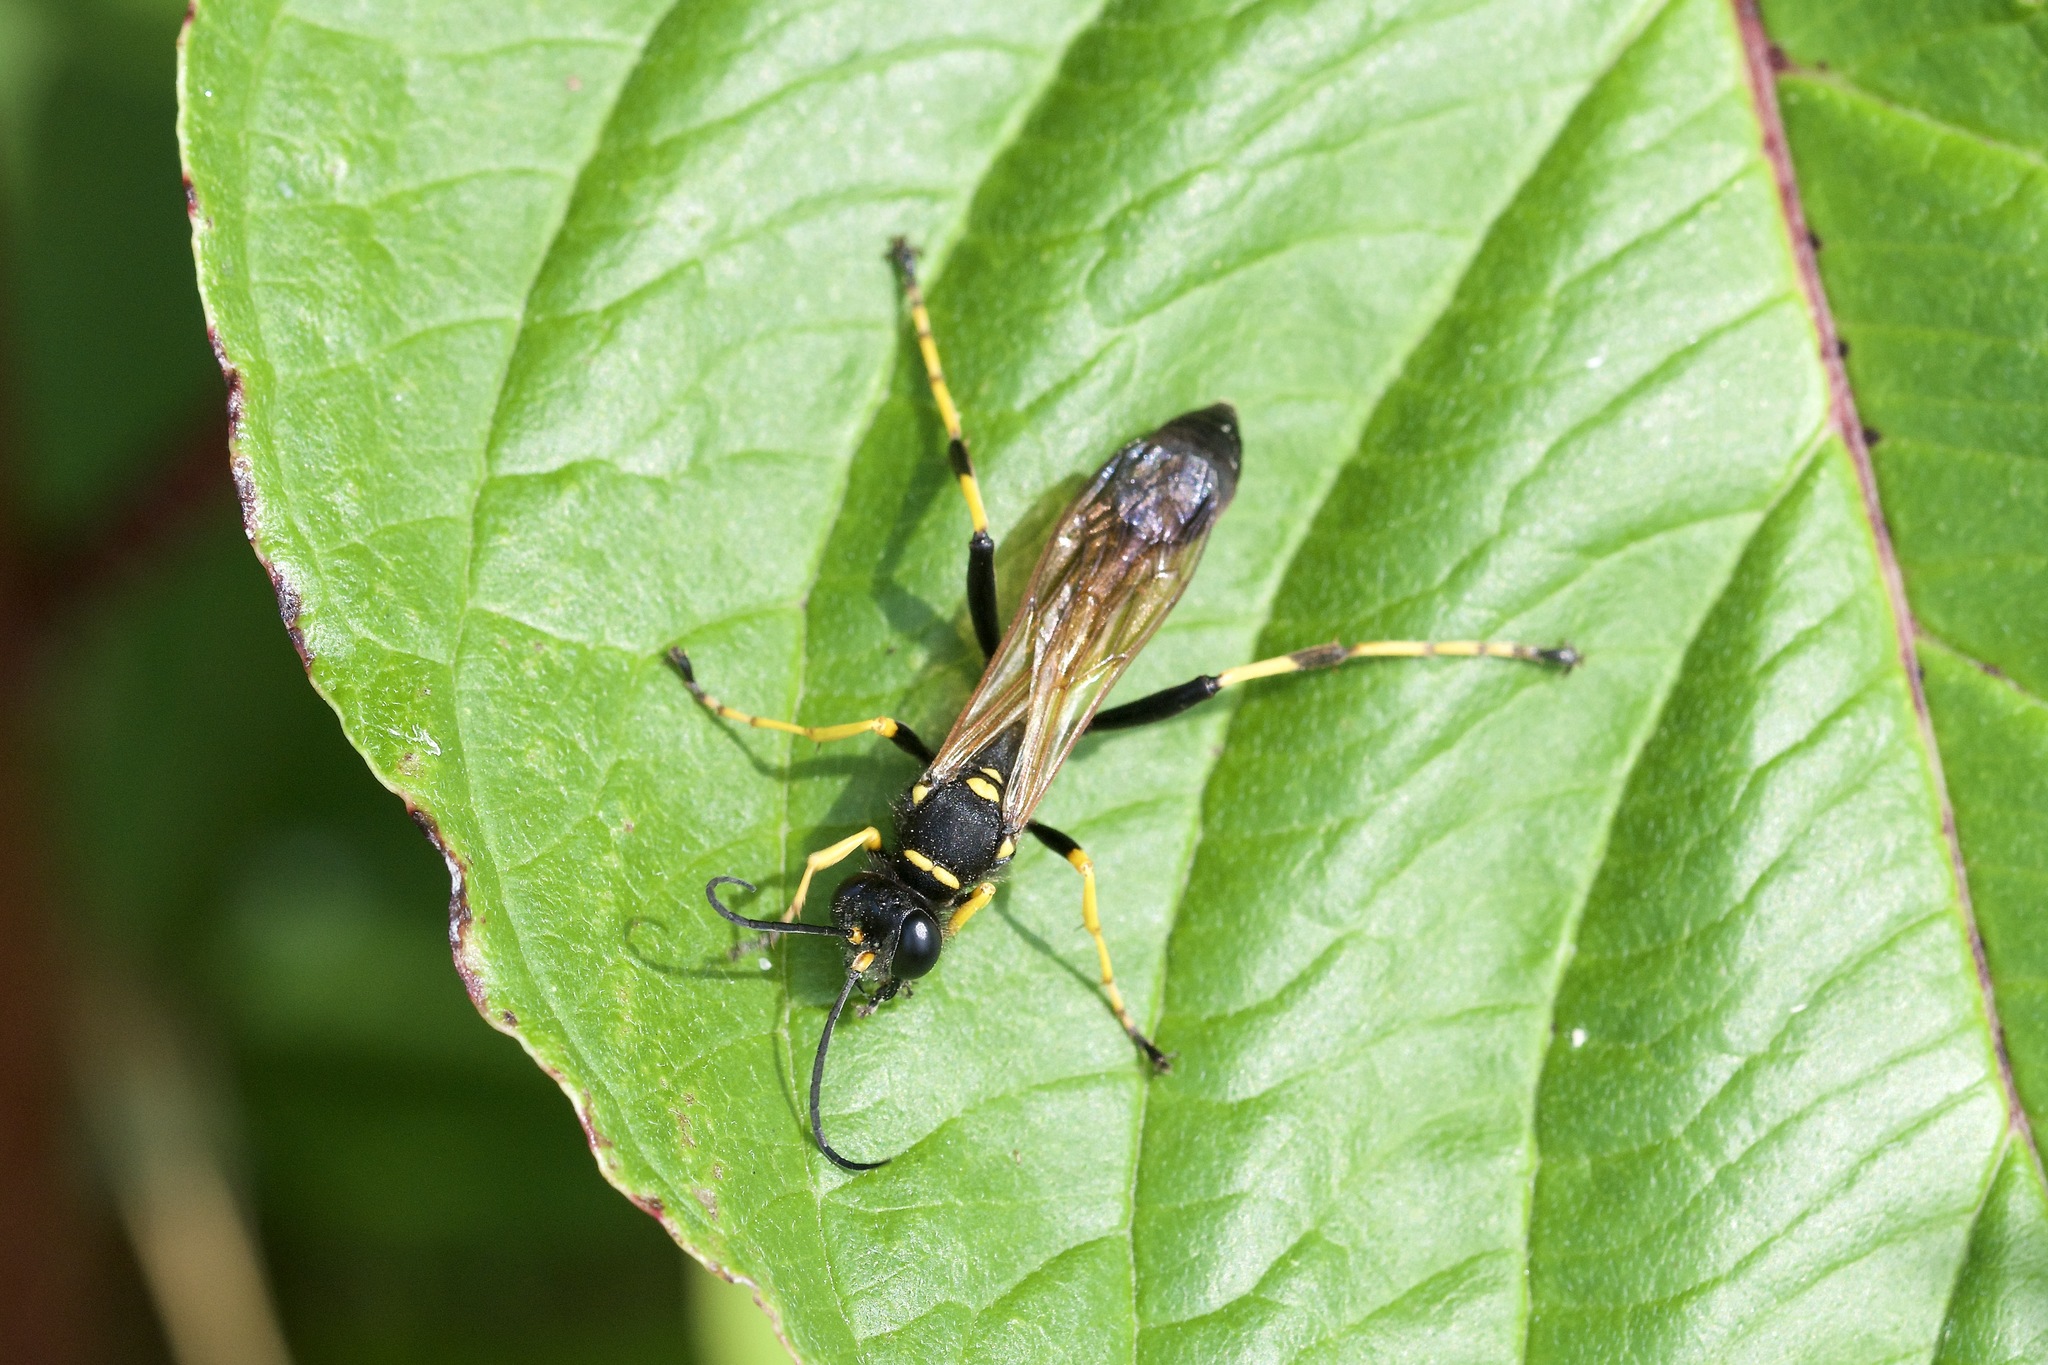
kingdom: Animalia
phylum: Arthropoda
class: Insecta
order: Hymenoptera
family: Sphecidae
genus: Sceliphron
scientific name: Sceliphron caementarium
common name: Mud dauber
